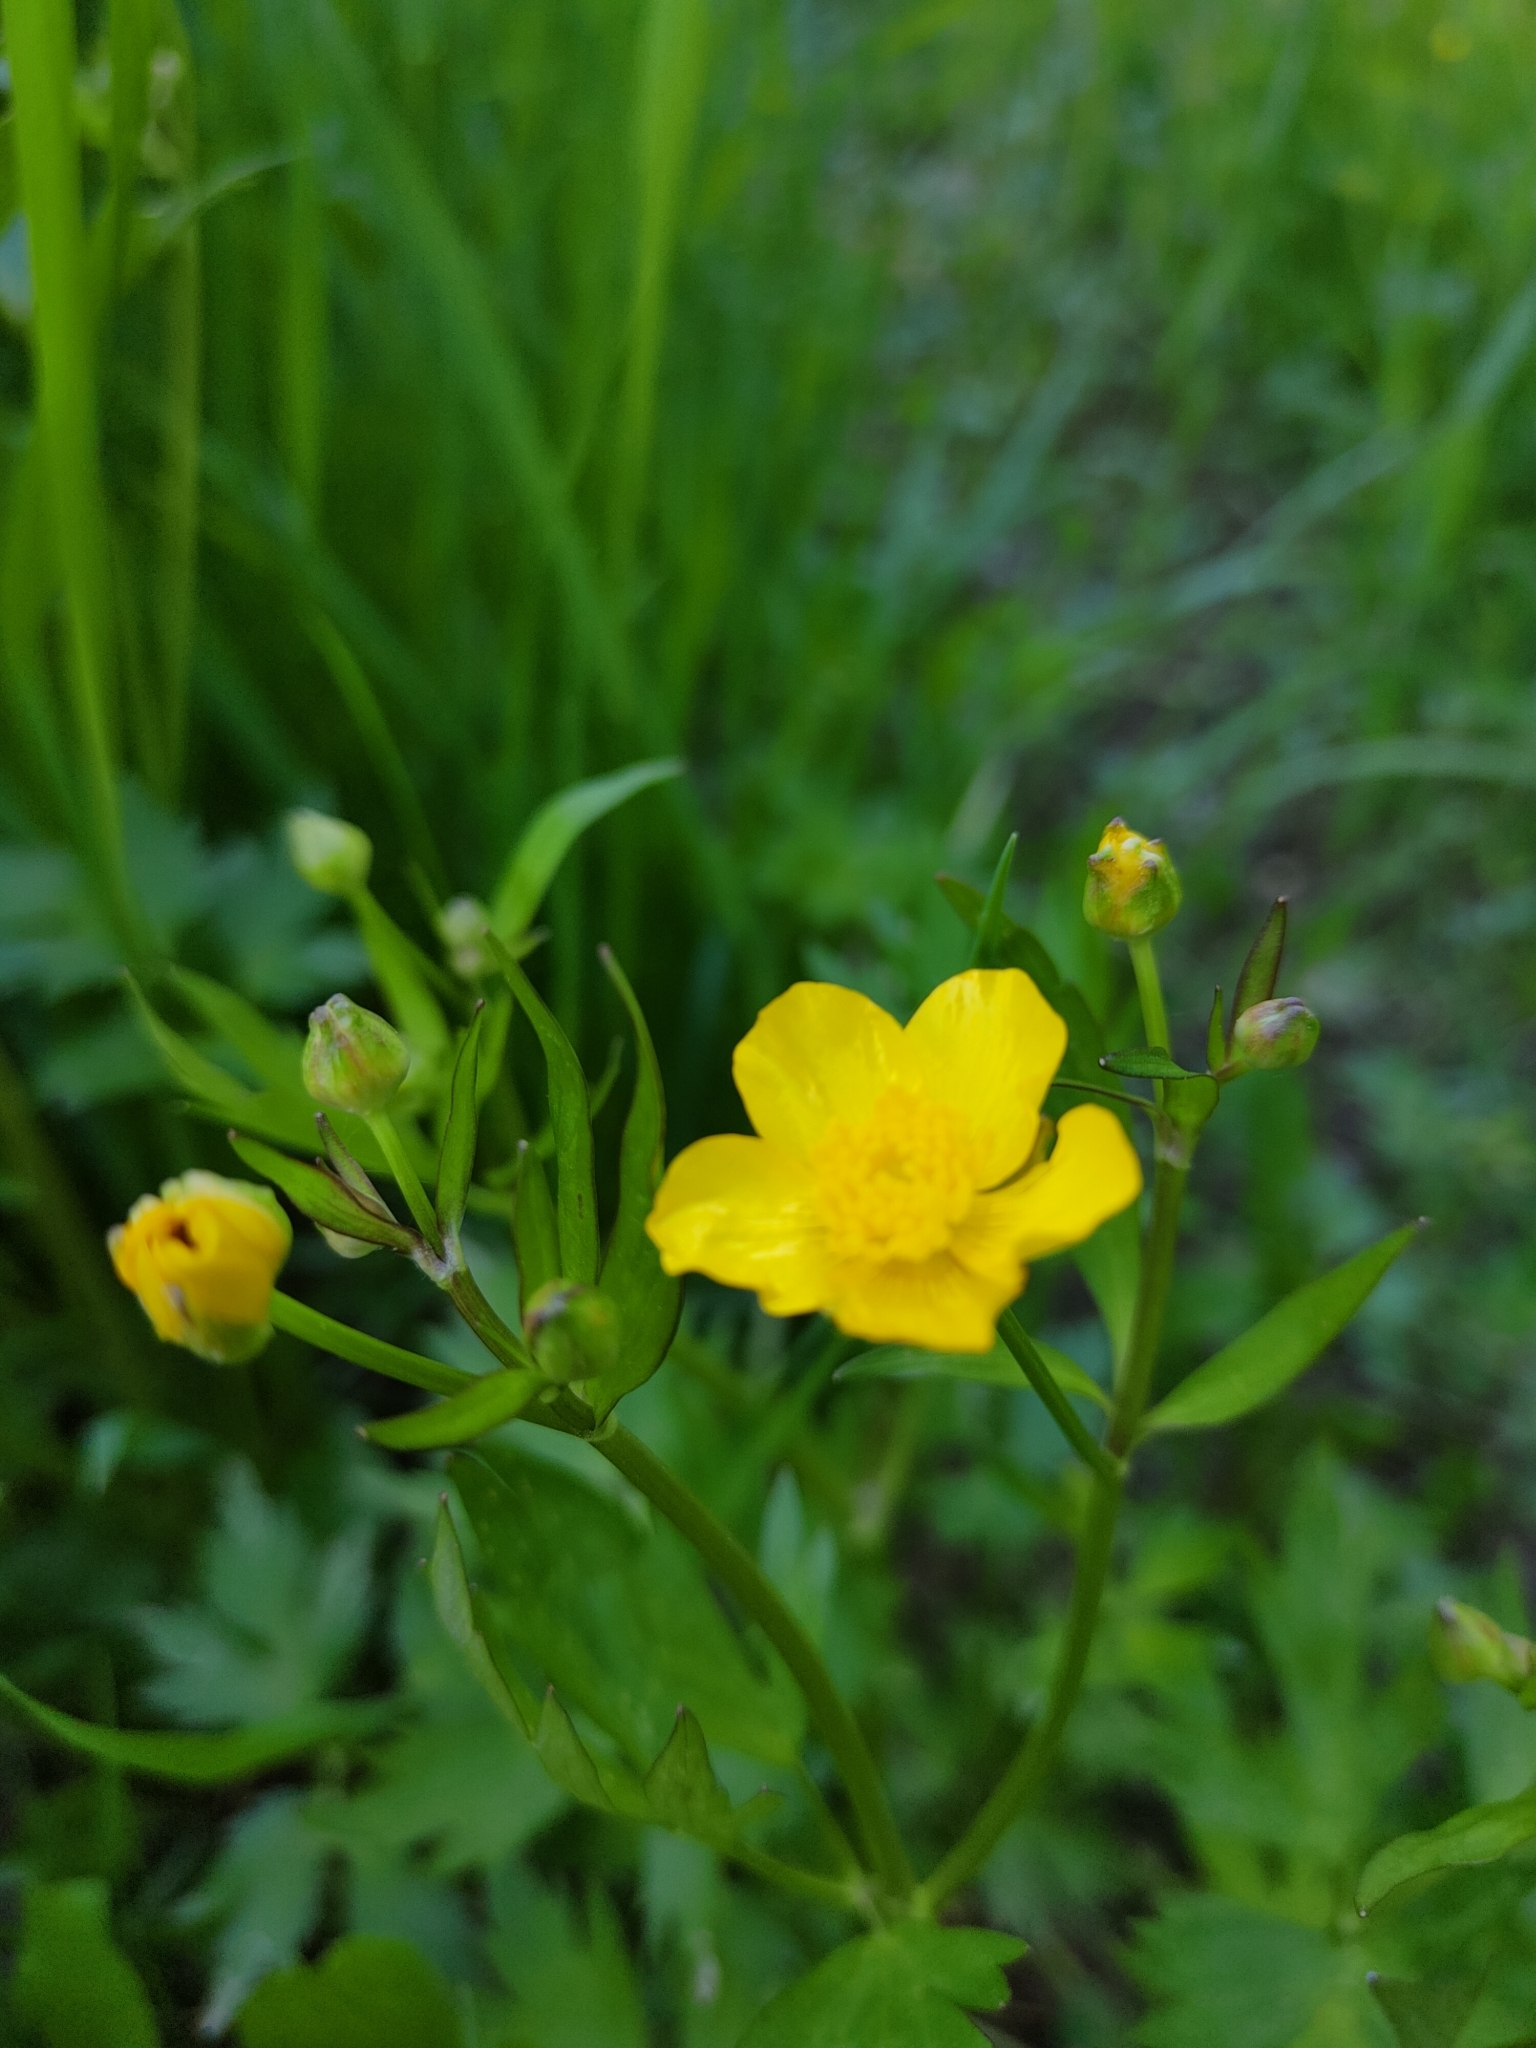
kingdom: Plantae
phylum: Tracheophyta
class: Magnoliopsida
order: Ranunculales
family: Ranunculaceae
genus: Ranunculus
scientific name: Ranunculus repens
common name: Creeping buttercup
